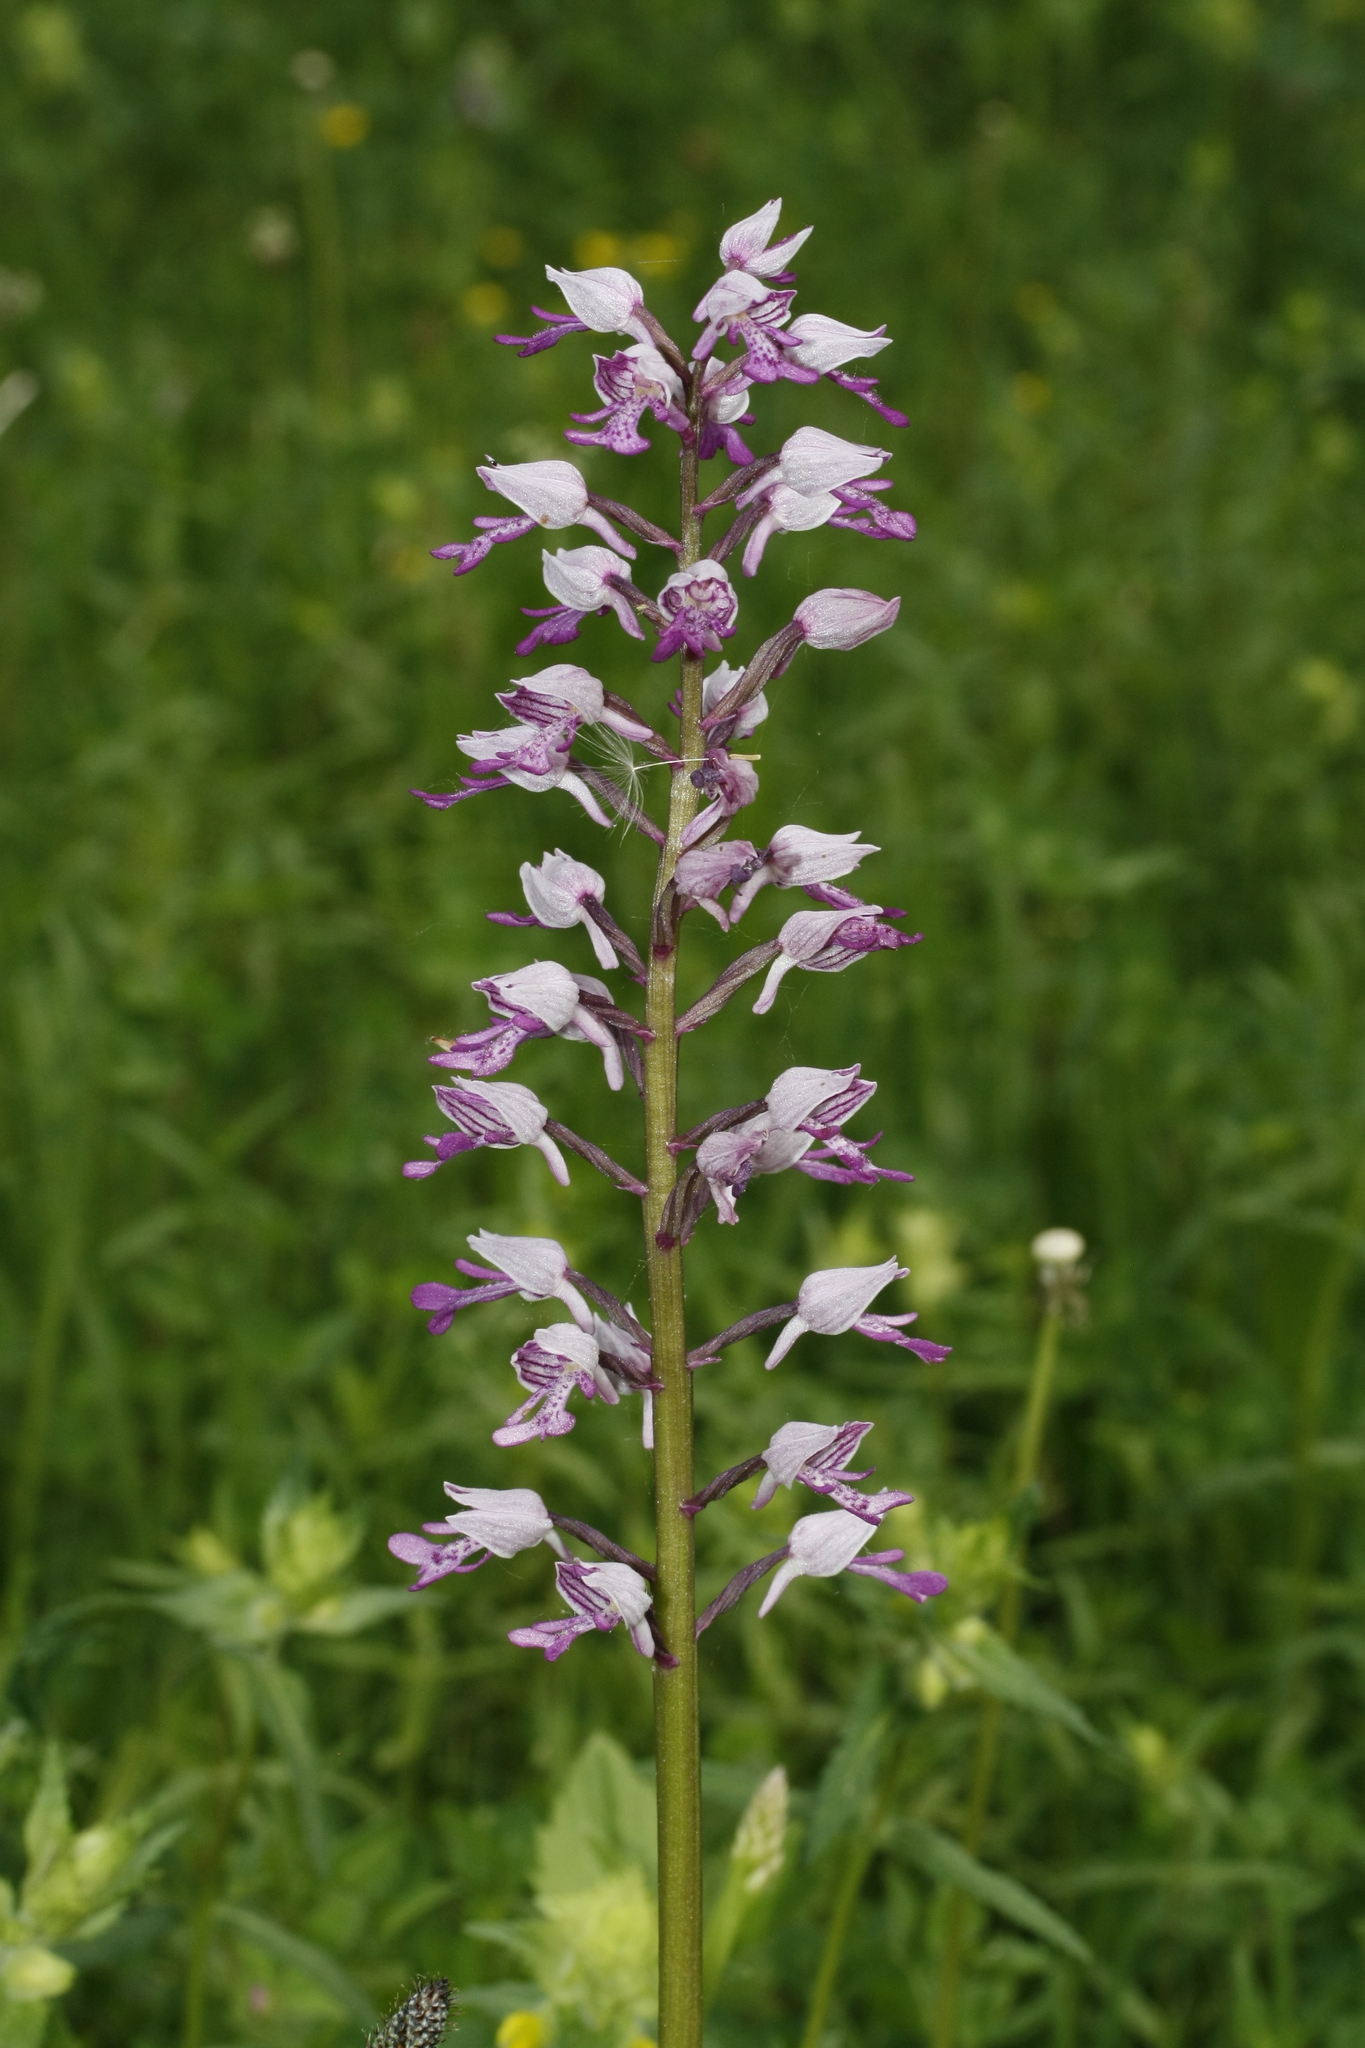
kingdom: Plantae
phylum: Tracheophyta
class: Liliopsida
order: Asparagales
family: Orchidaceae
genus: Orchis
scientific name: Orchis militaris
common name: Military orchid
